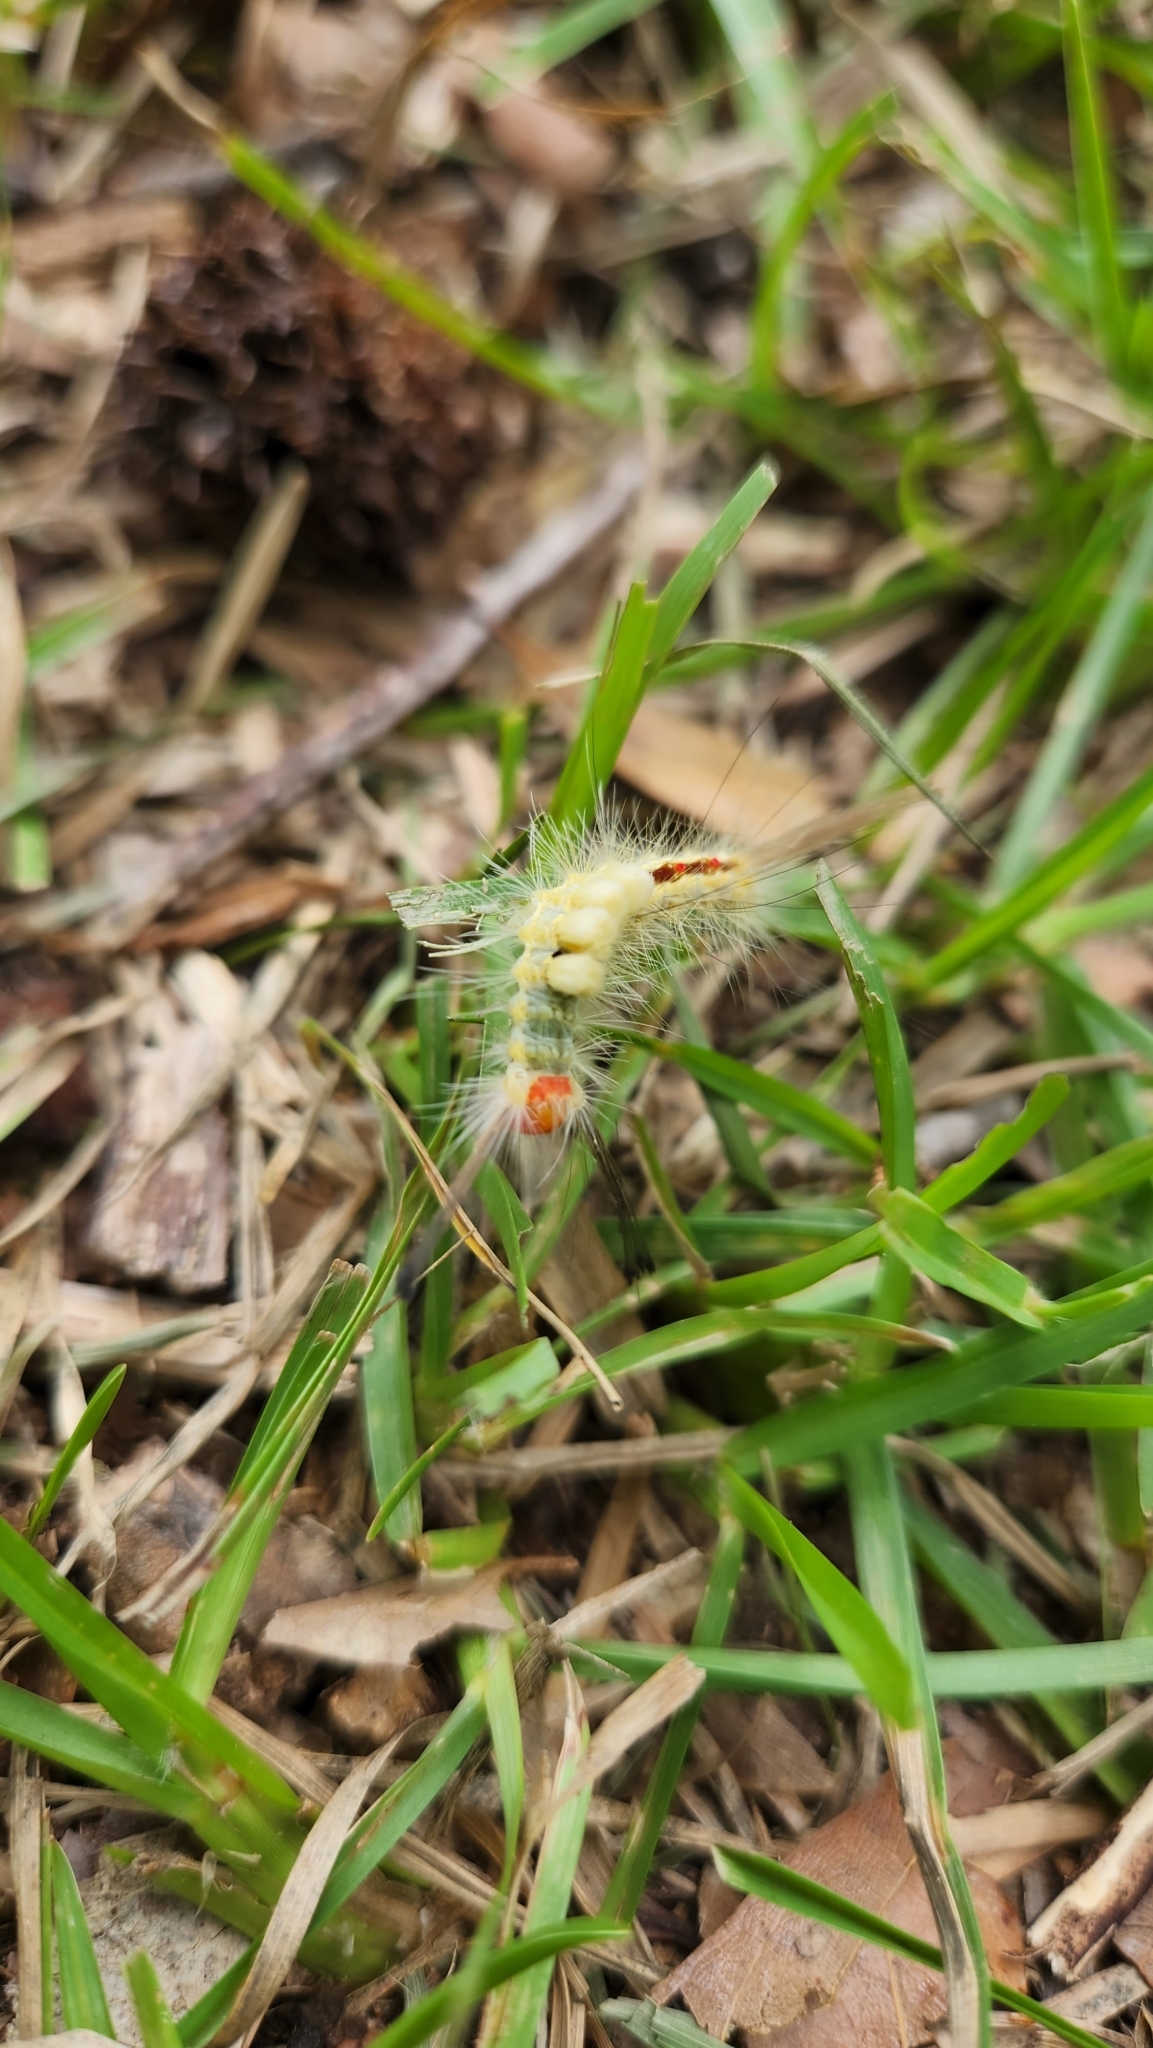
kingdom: Animalia
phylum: Arthropoda
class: Insecta
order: Lepidoptera
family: Erebidae
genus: Orgyia
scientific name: Orgyia leucostigma
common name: White-marked tussock moth
